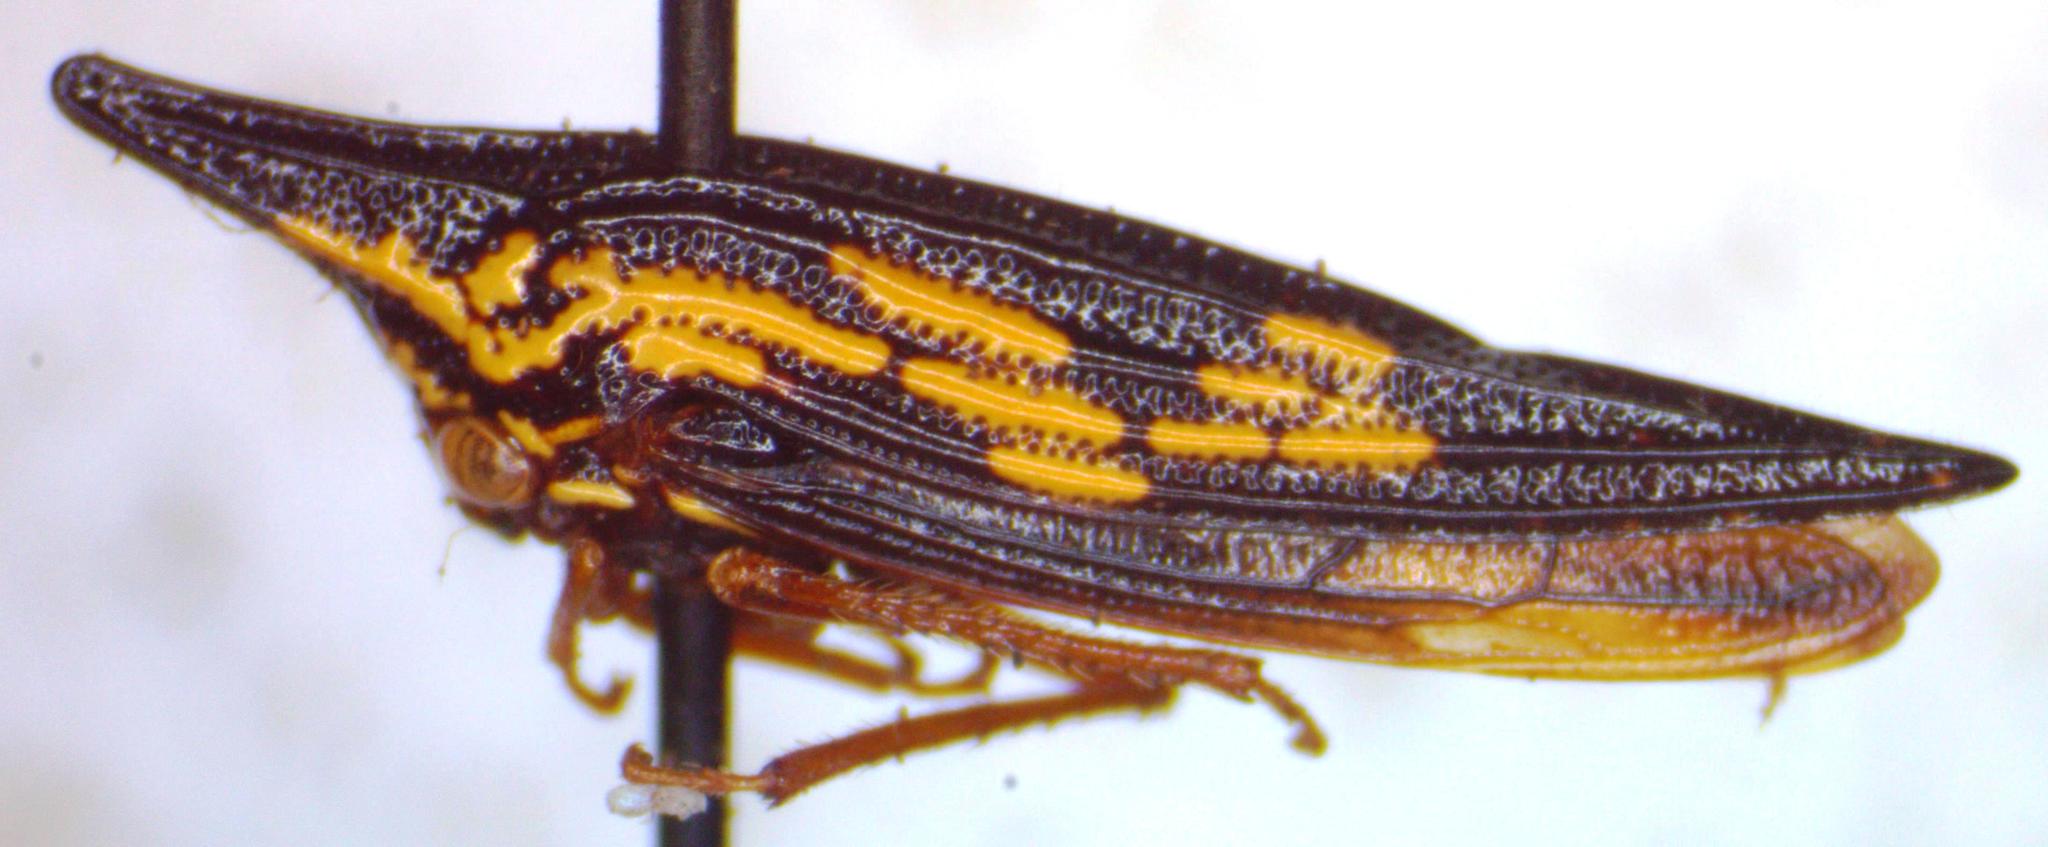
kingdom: Animalia
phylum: Arthropoda
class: Insecta
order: Hemiptera
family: Membracidae
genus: Polyglypta
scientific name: Polyglypta costata
